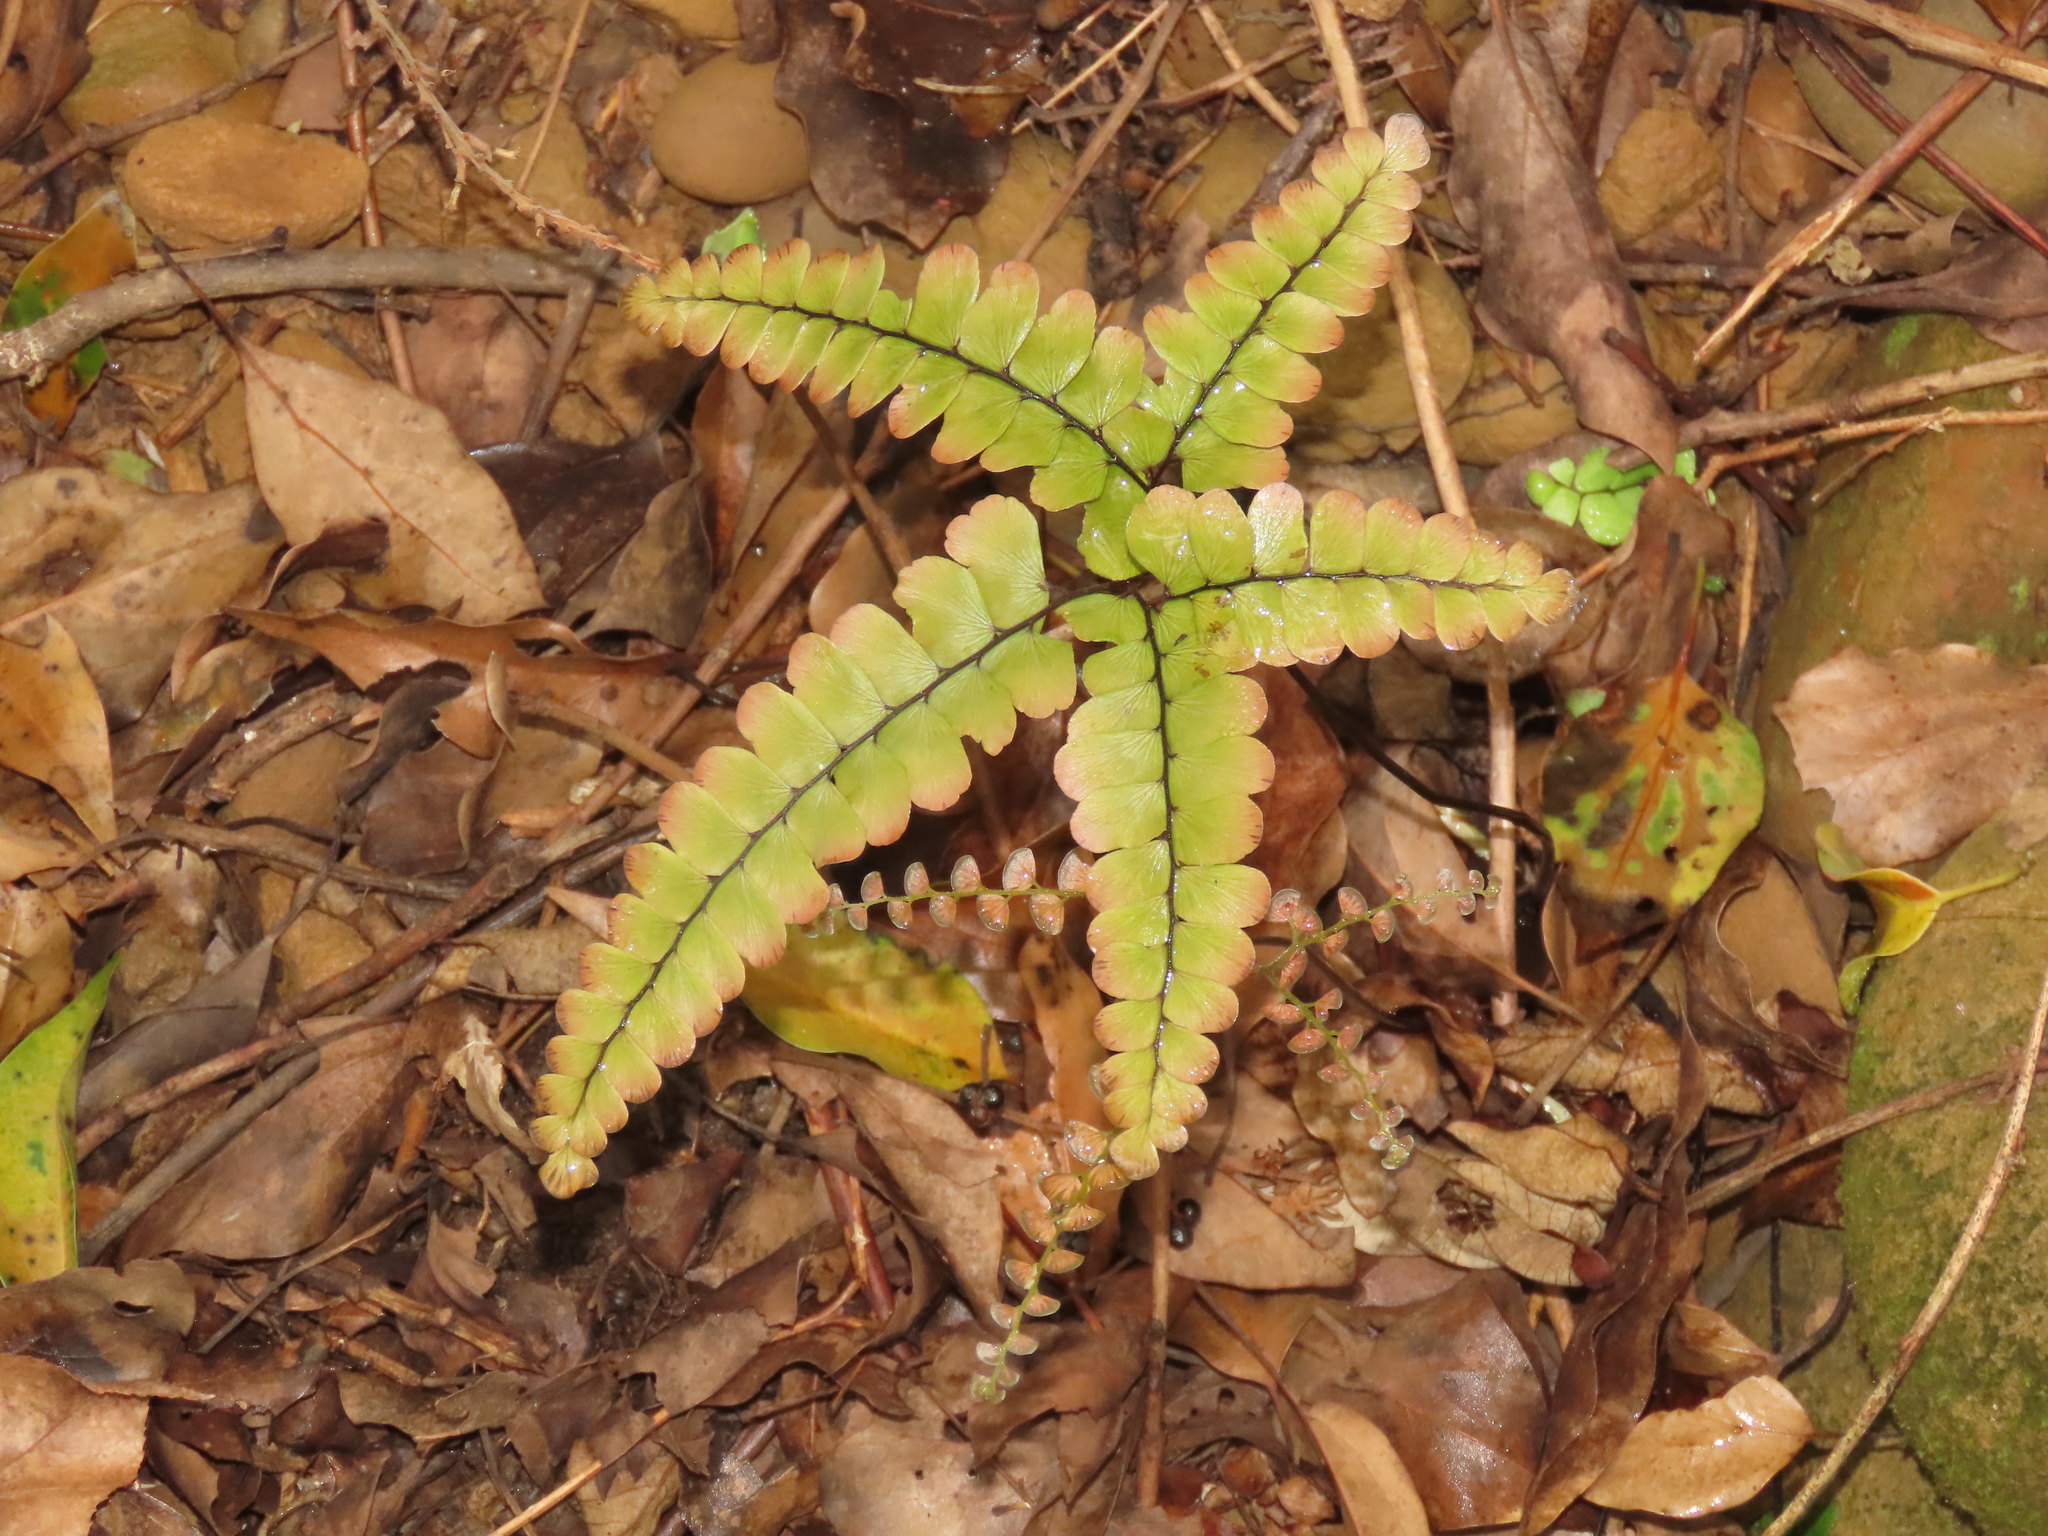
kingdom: Plantae
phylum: Tracheophyta
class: Polypodiopsida
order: Polypodiales
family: Pteridaceae
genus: Adiantum
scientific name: Adiantum flabellulatum
